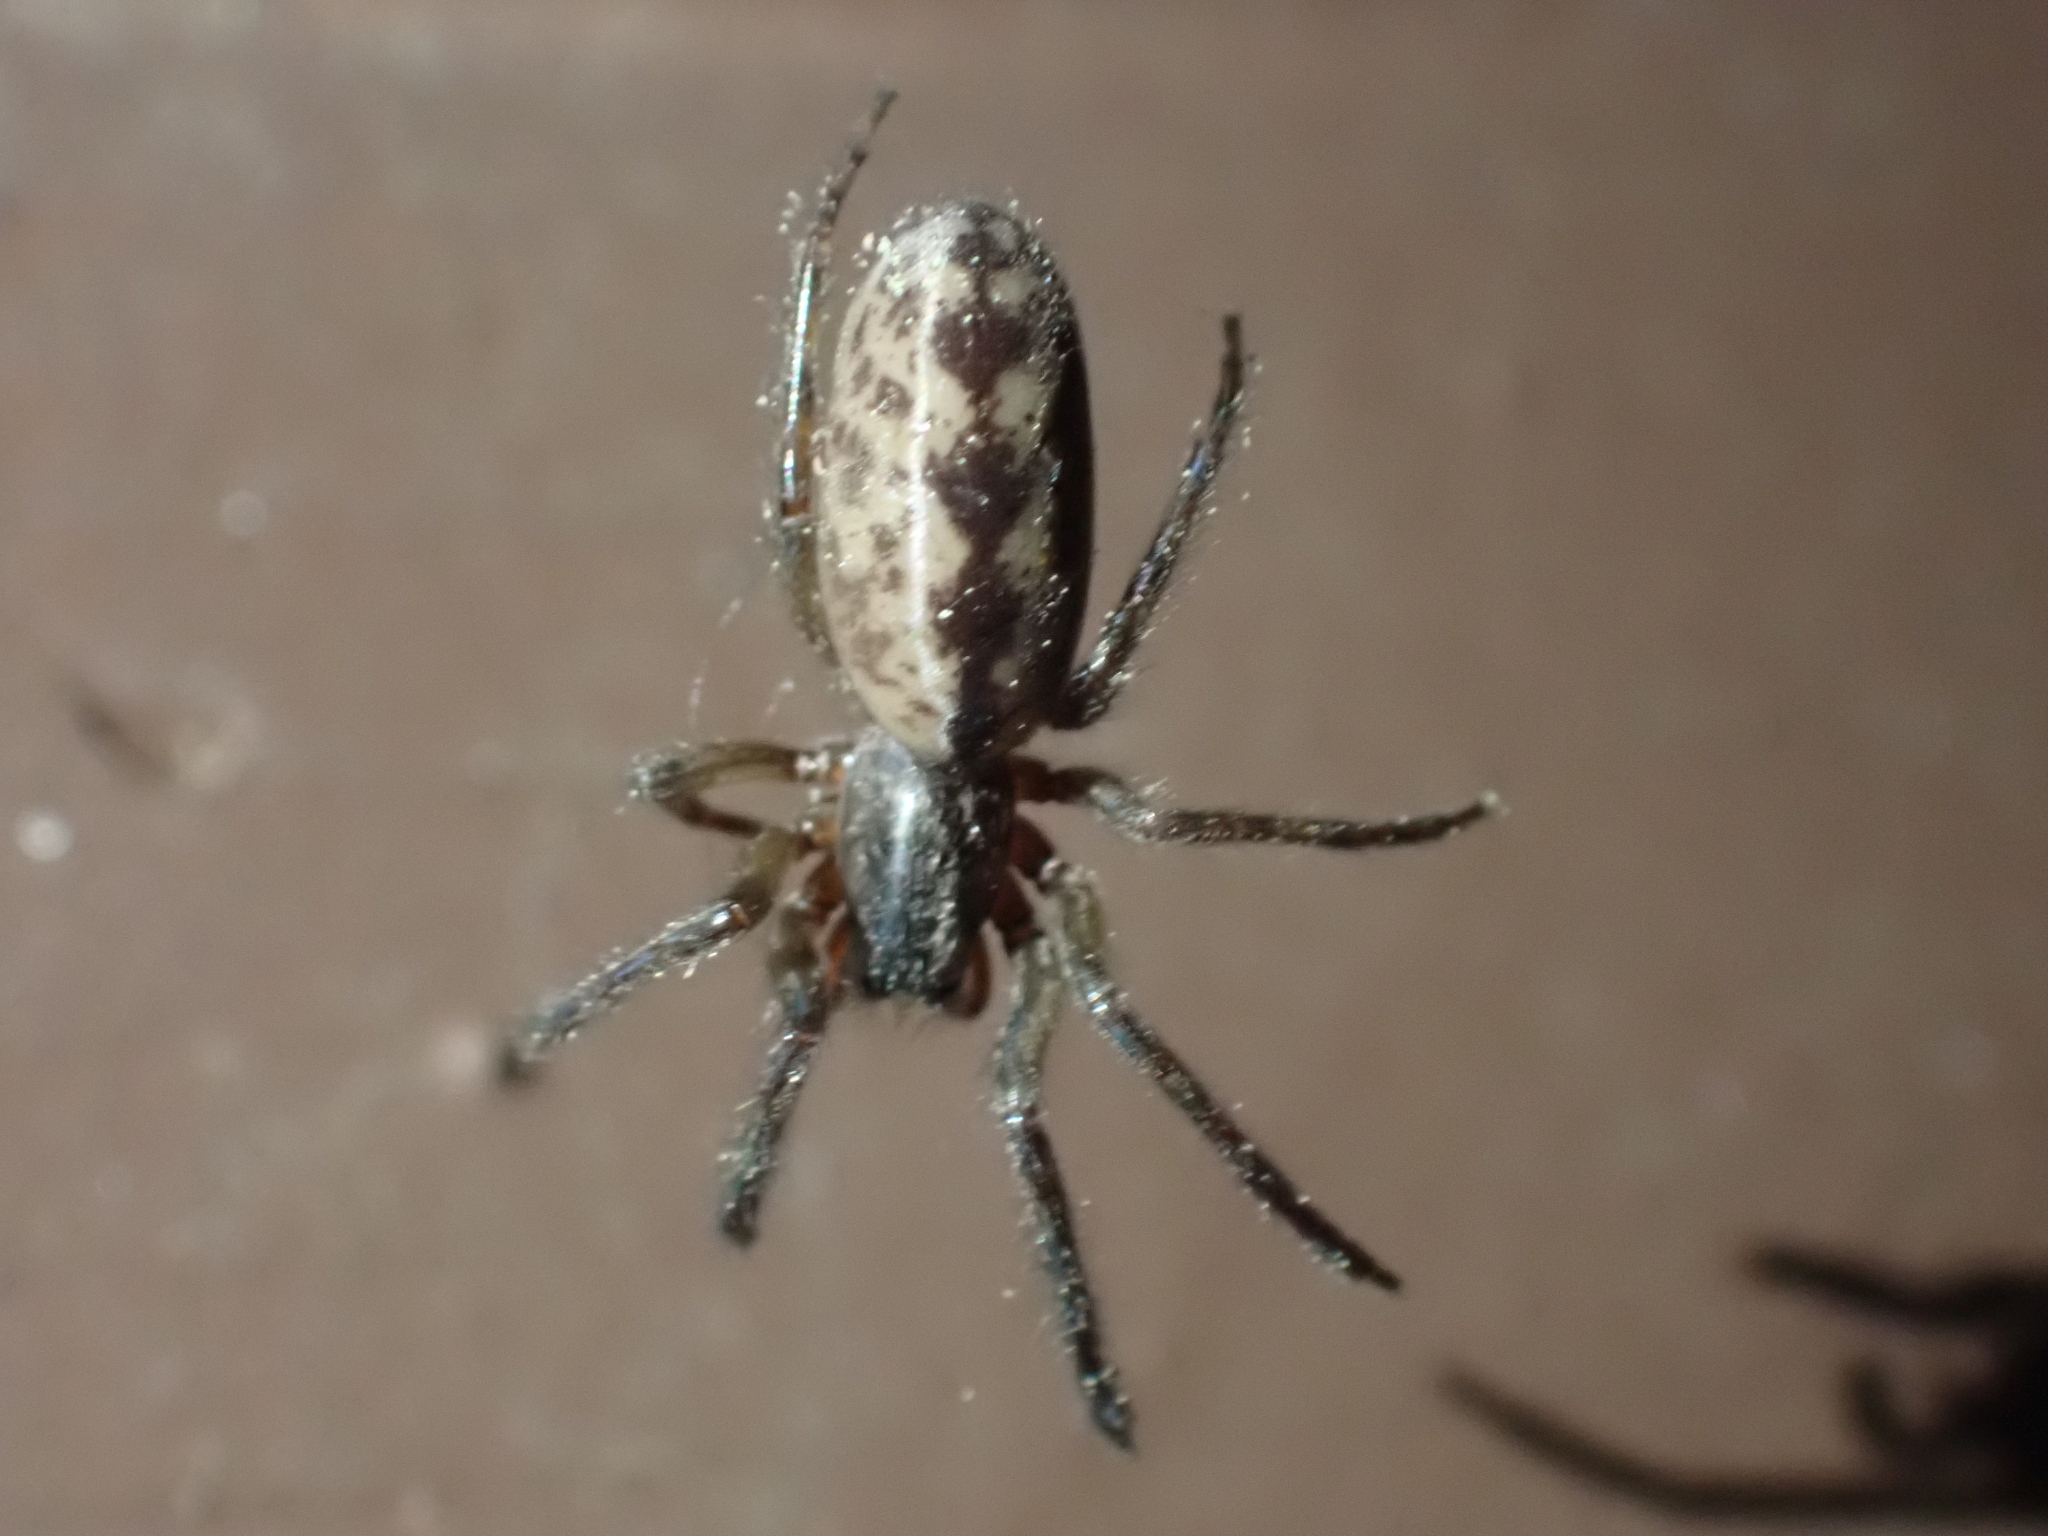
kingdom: Animalia
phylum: Arthropoda
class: Arachnida
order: Araneae
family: Segestriidae
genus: Segestria
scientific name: Segestria pacifica
